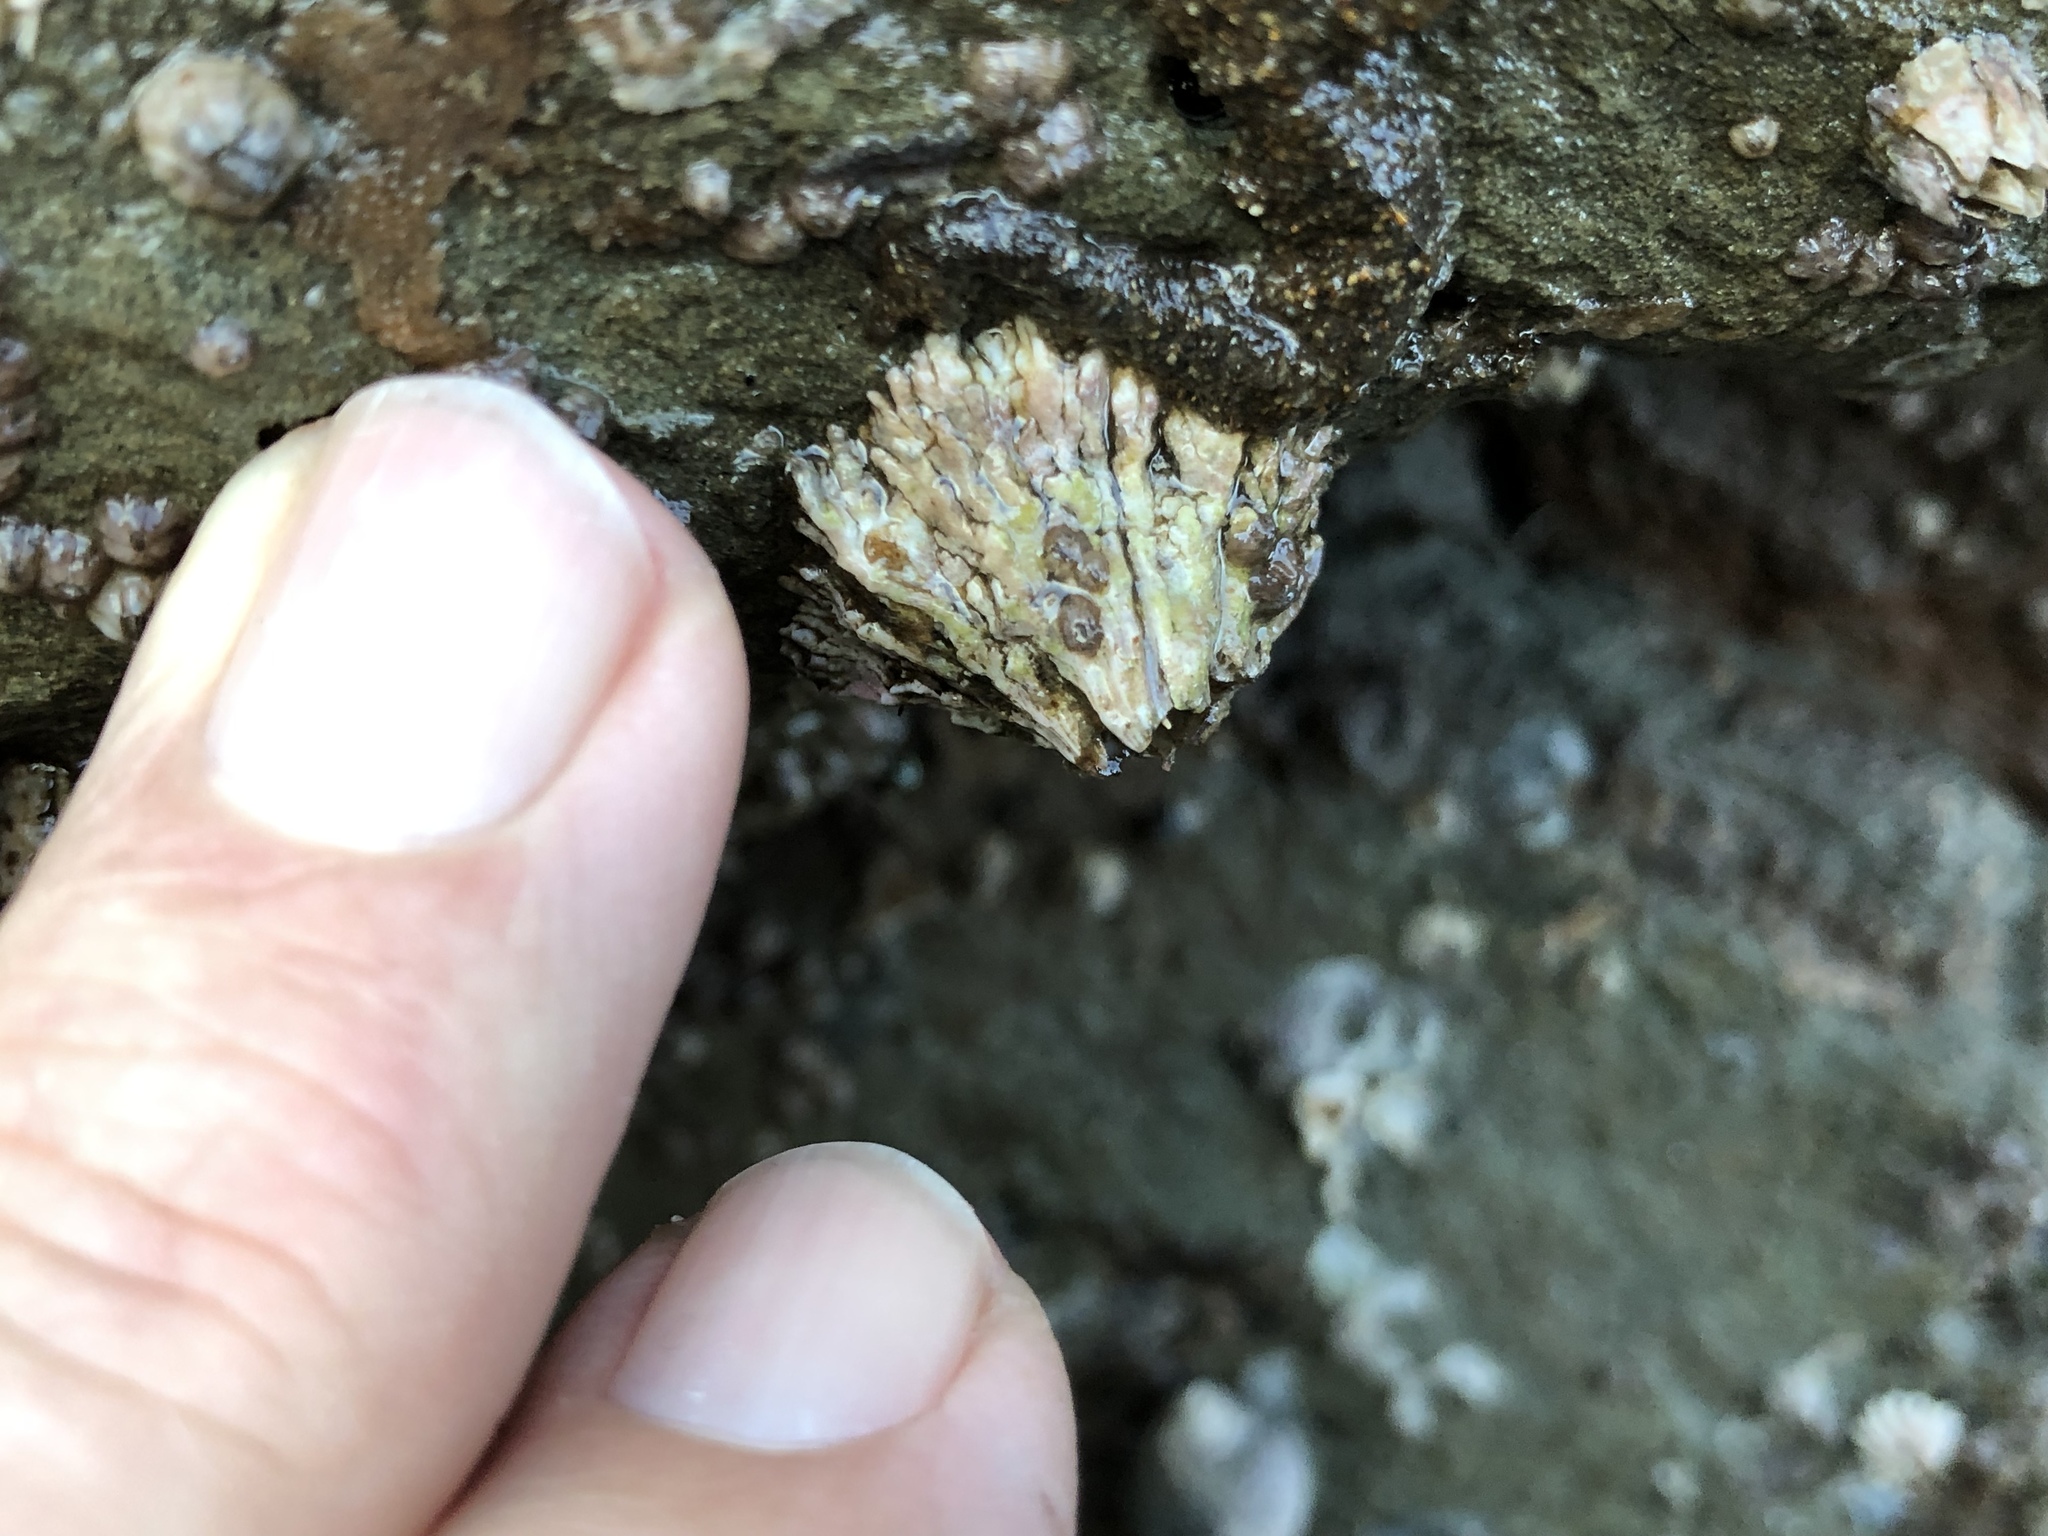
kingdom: Animalia
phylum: Arthropoda
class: Maxillopoda
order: Sessilia
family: Tetraclitidae
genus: Tetraclita
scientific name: Tetraclita rubescens
